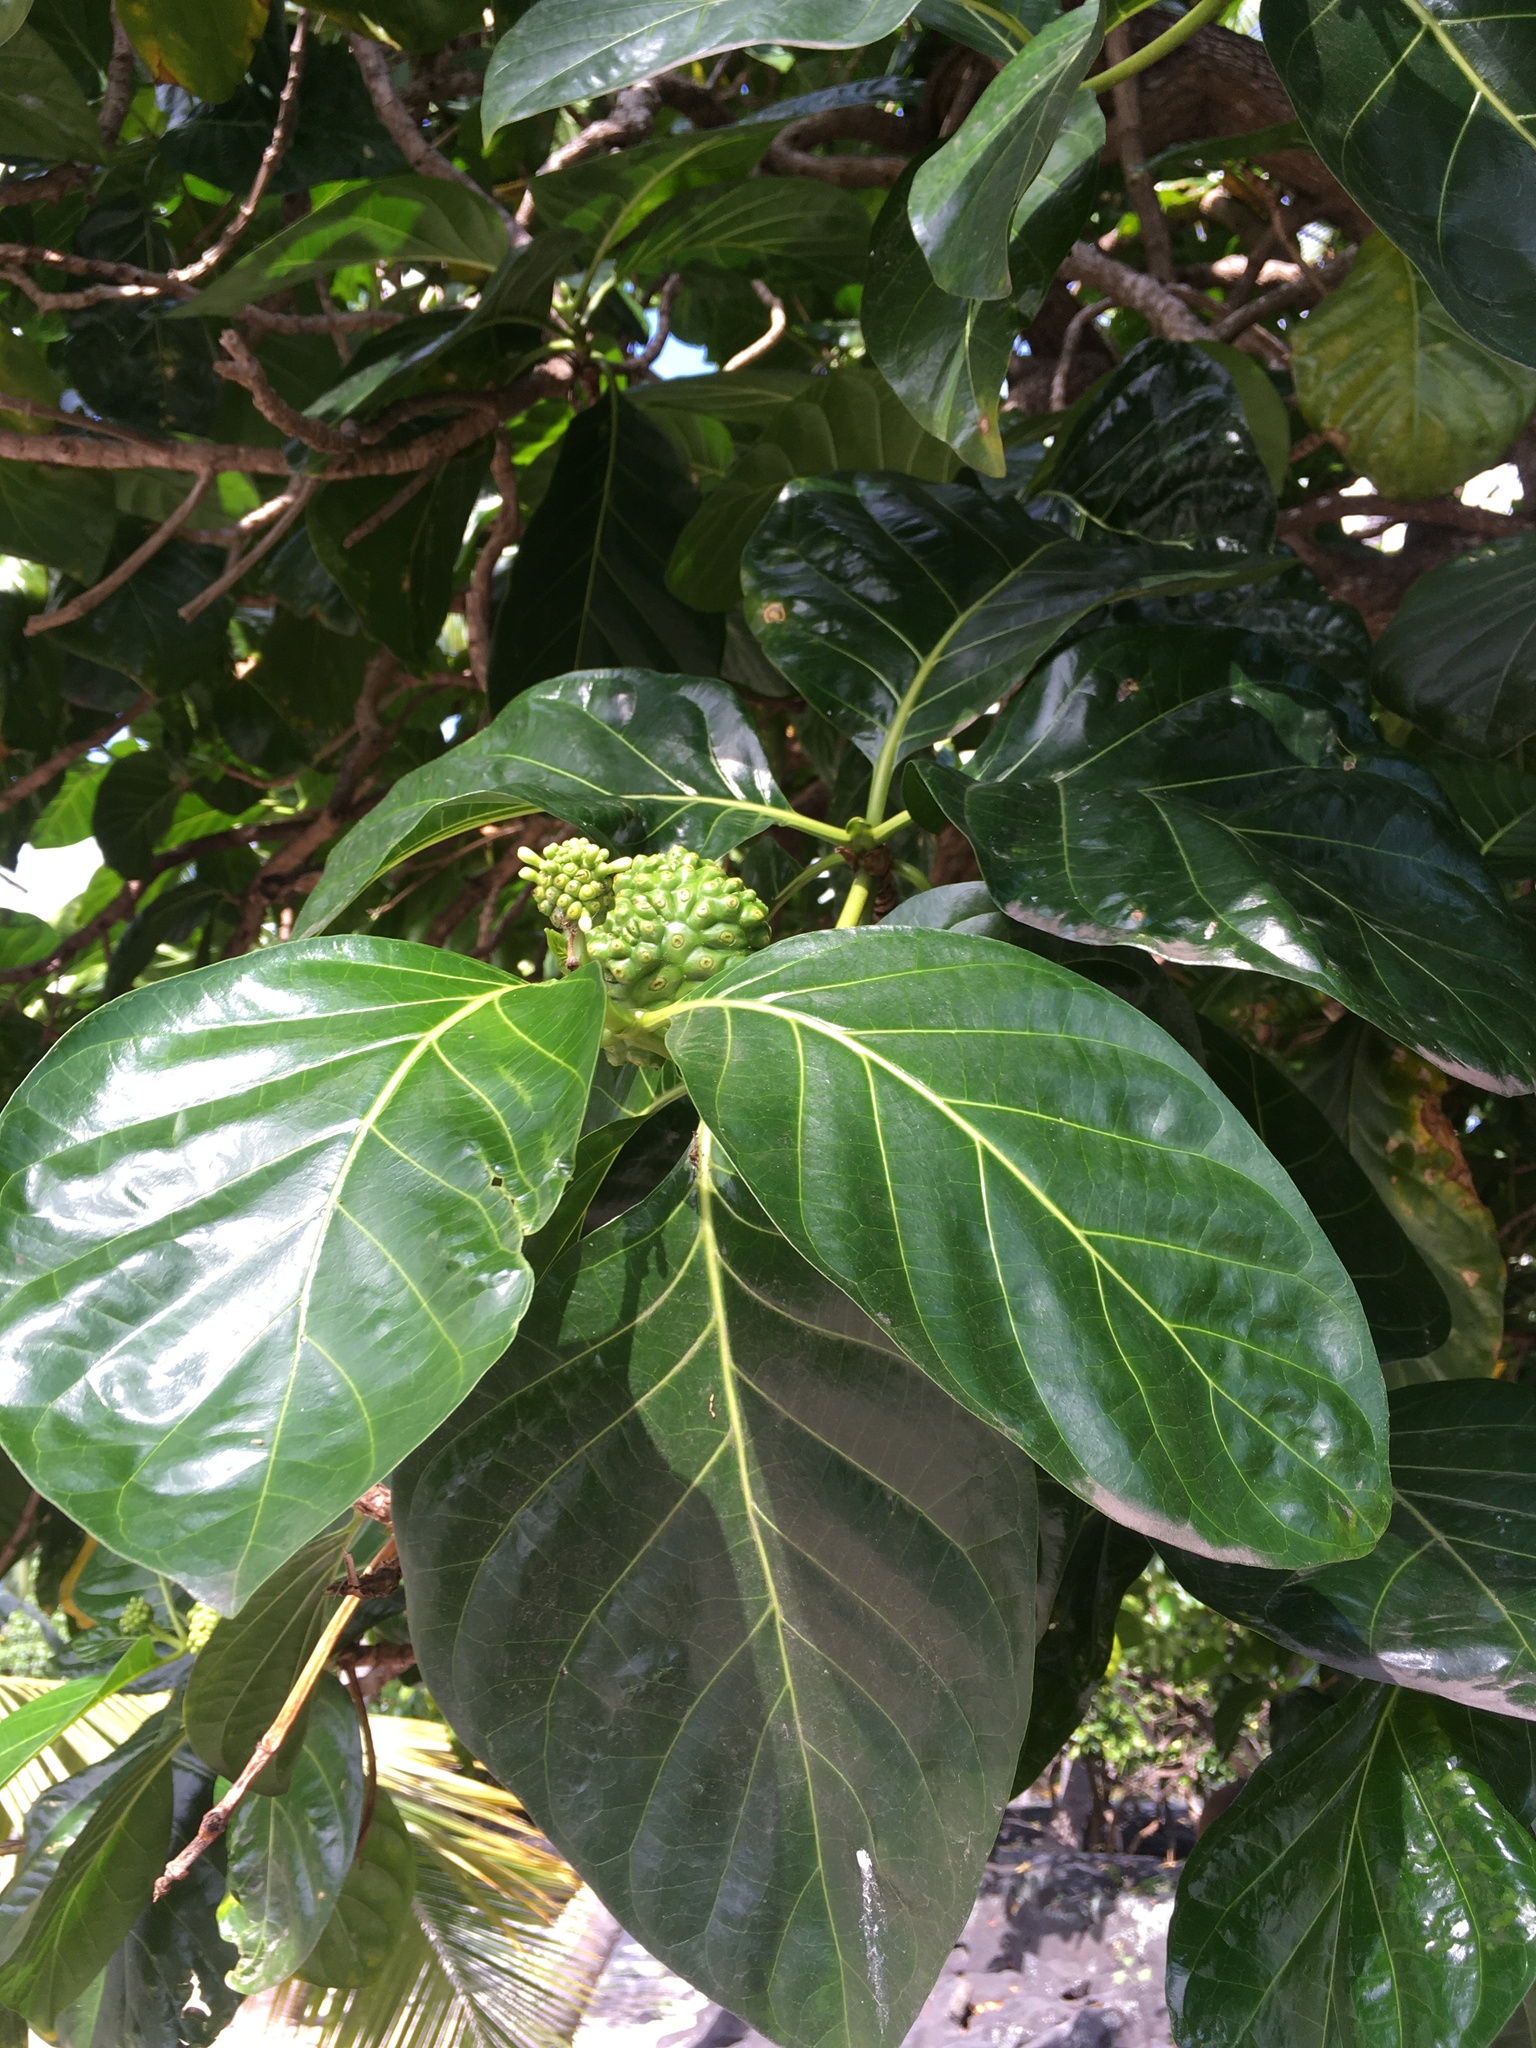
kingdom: Plantae
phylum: Tracheophyta
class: Magnoliopsida
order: Gentianales
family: Rubiaceae
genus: Morinda
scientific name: Morinda citrifolia
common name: Indian-mulberry
